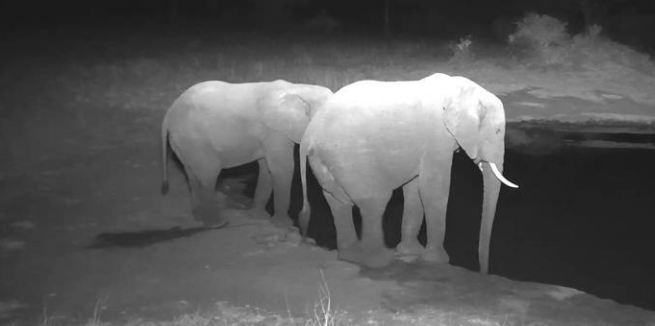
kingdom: Animalia
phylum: Chordata
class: Mammalia
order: Proboscidea
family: Elephantidae
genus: Loxodonta
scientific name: Loxodonta africana
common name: African elephant
